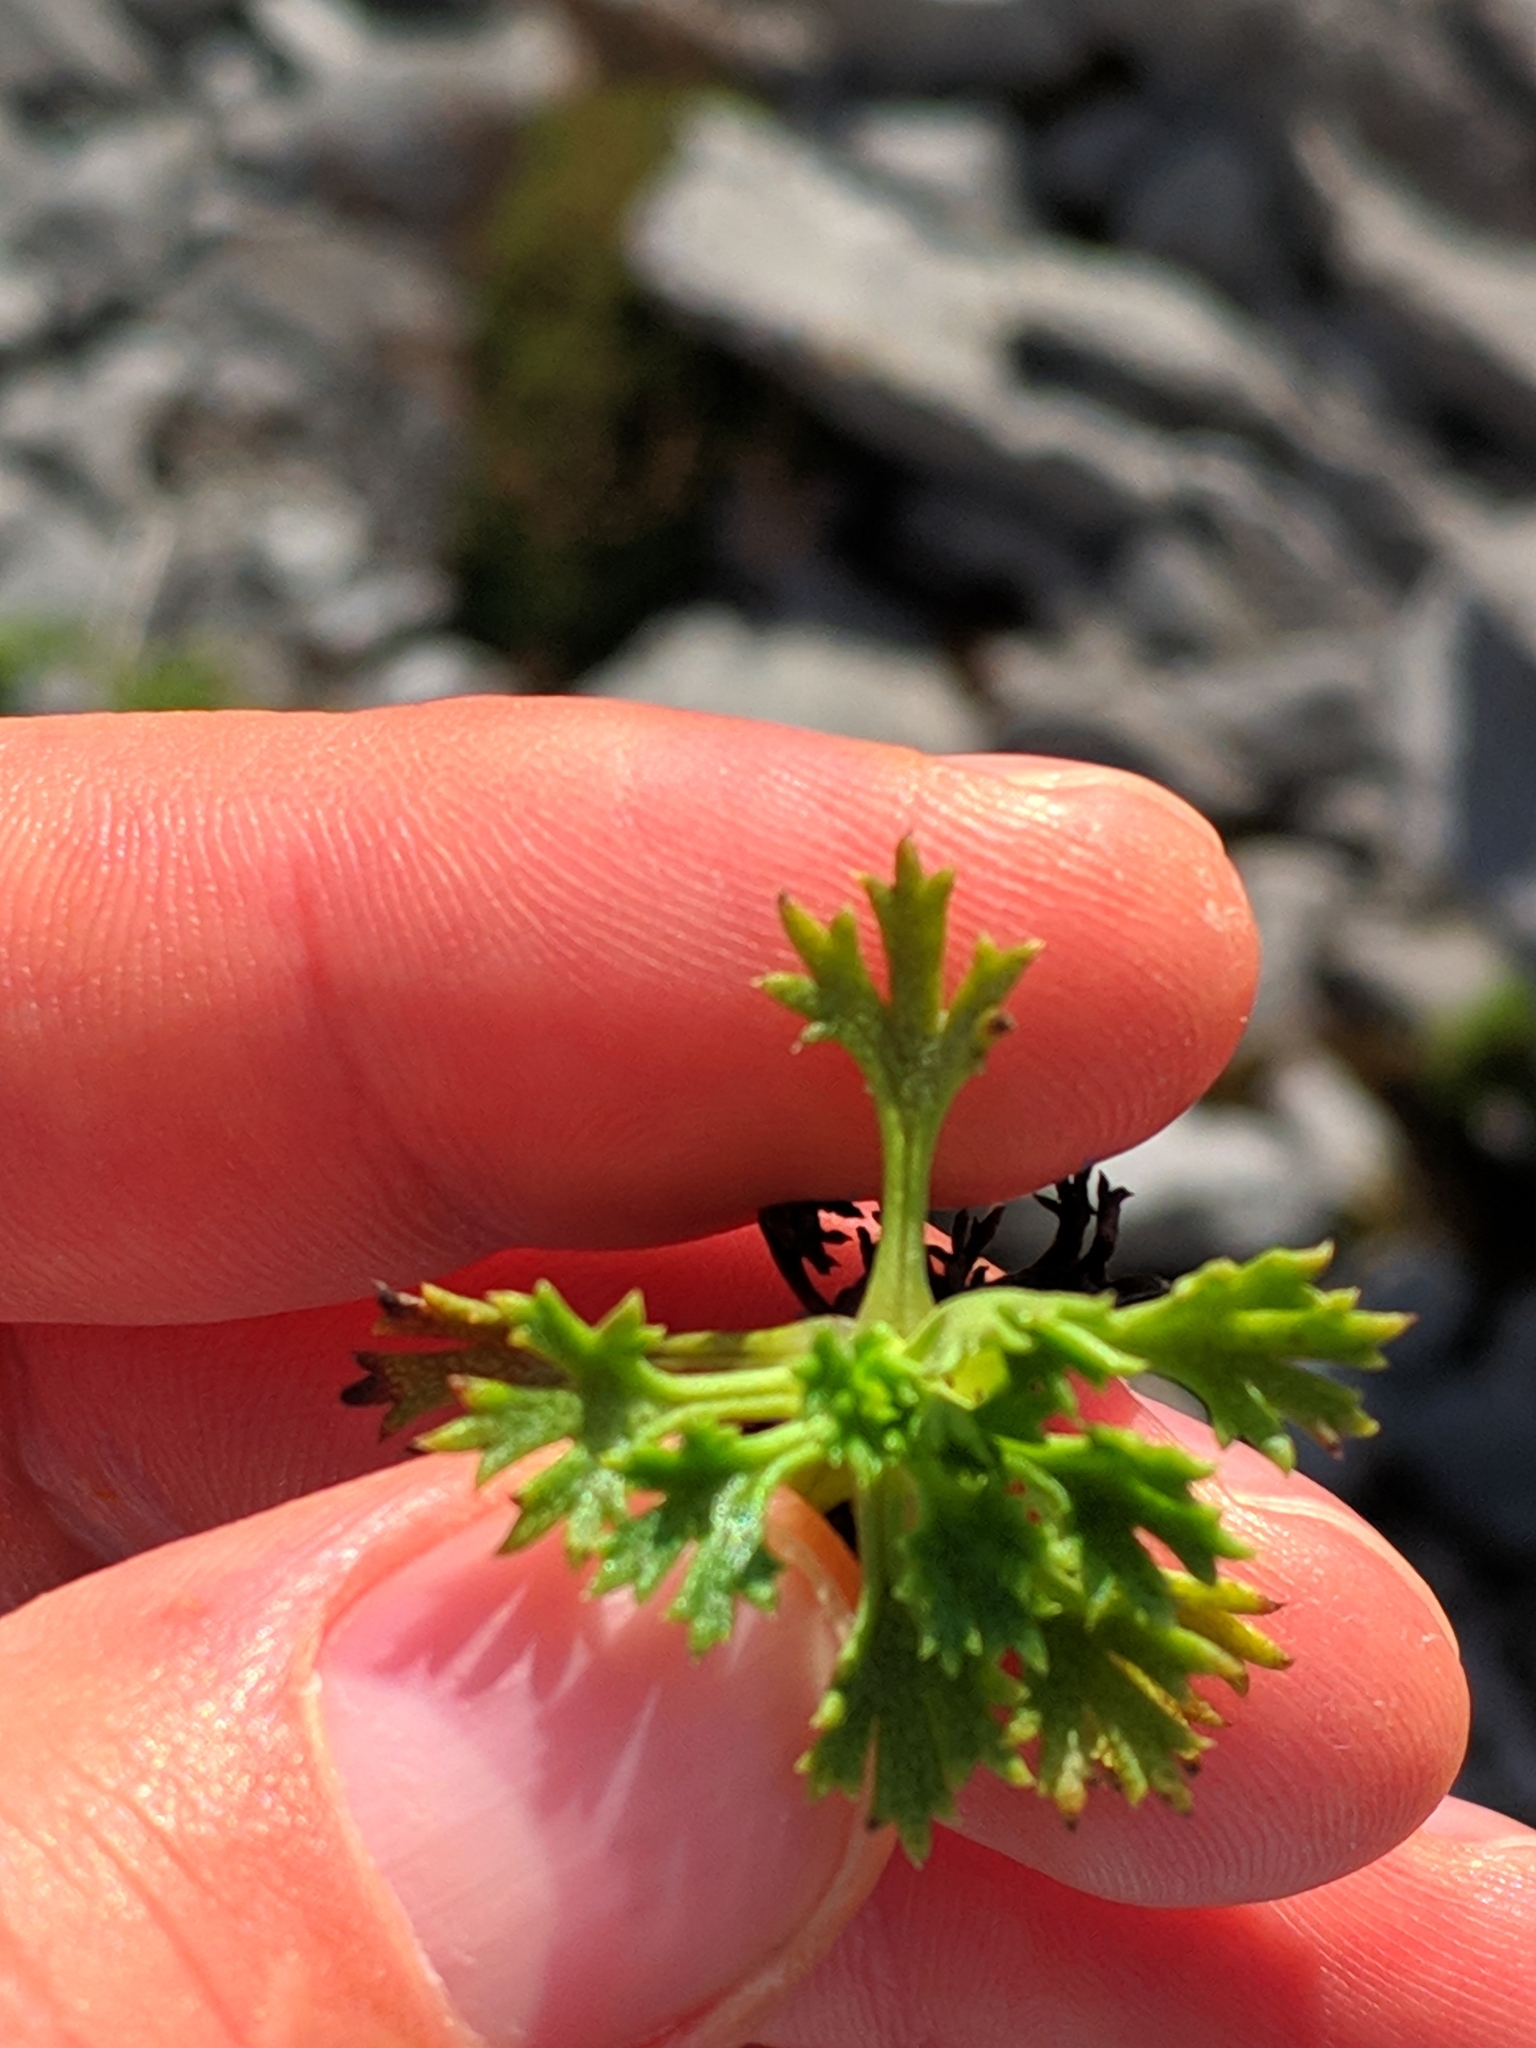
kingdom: Plantae
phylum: Tracheophyta
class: Magnoliopsida
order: Saxifragales
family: Saxifragaceae
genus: Saxifraga
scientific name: Saxifraga trifurcata
